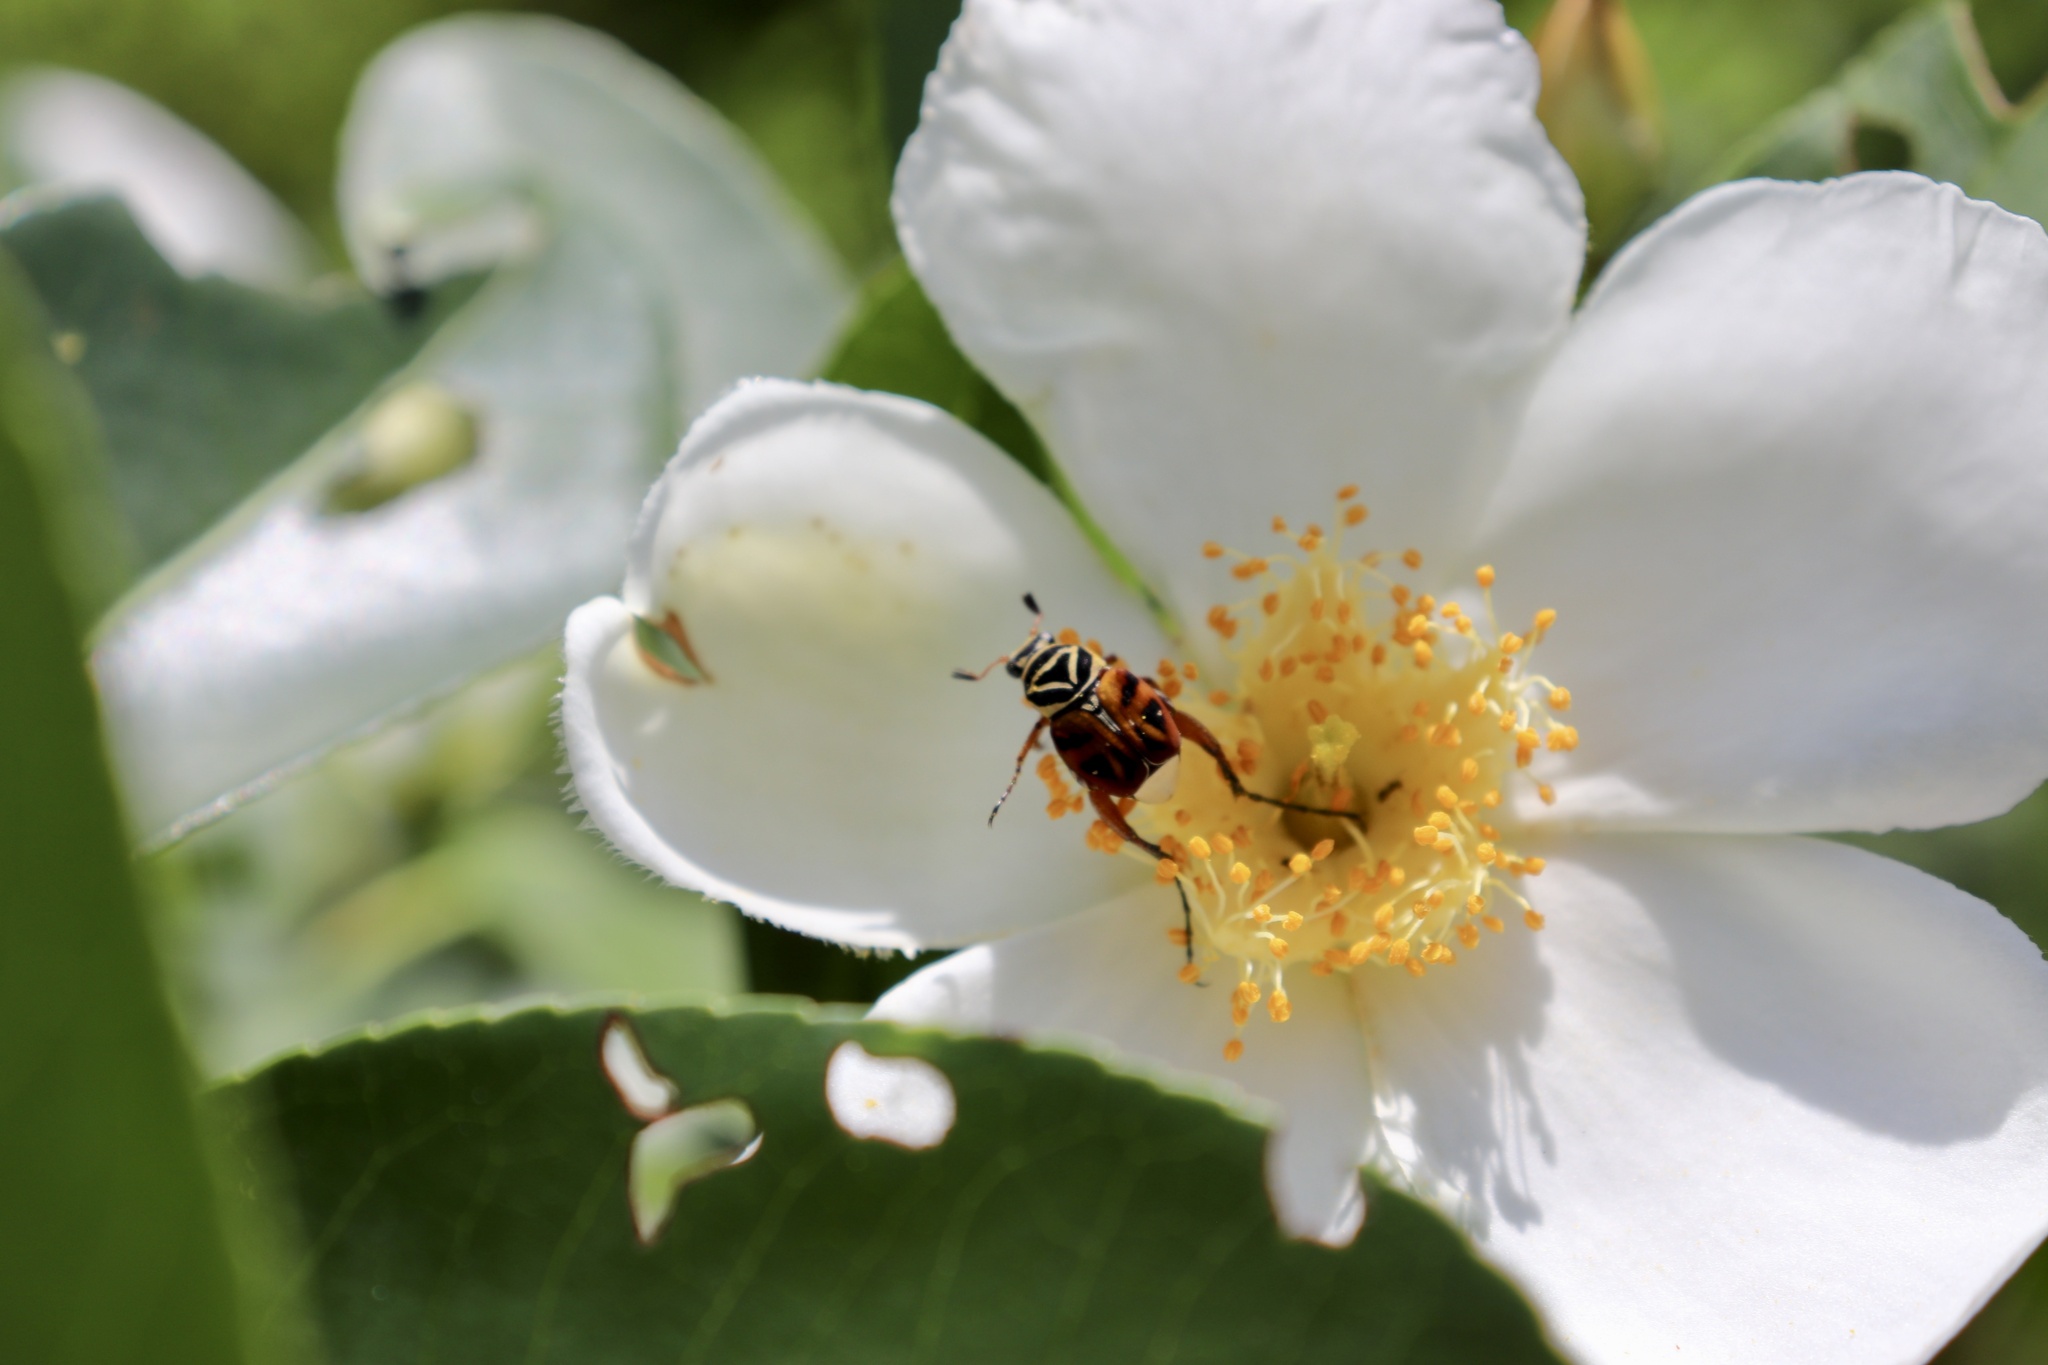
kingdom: Animalia
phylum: Arthropoda
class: Insecta
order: Coleoptera
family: Scarabaeidae
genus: Trigonopeltastes
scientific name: Trigonopeltastes delta
